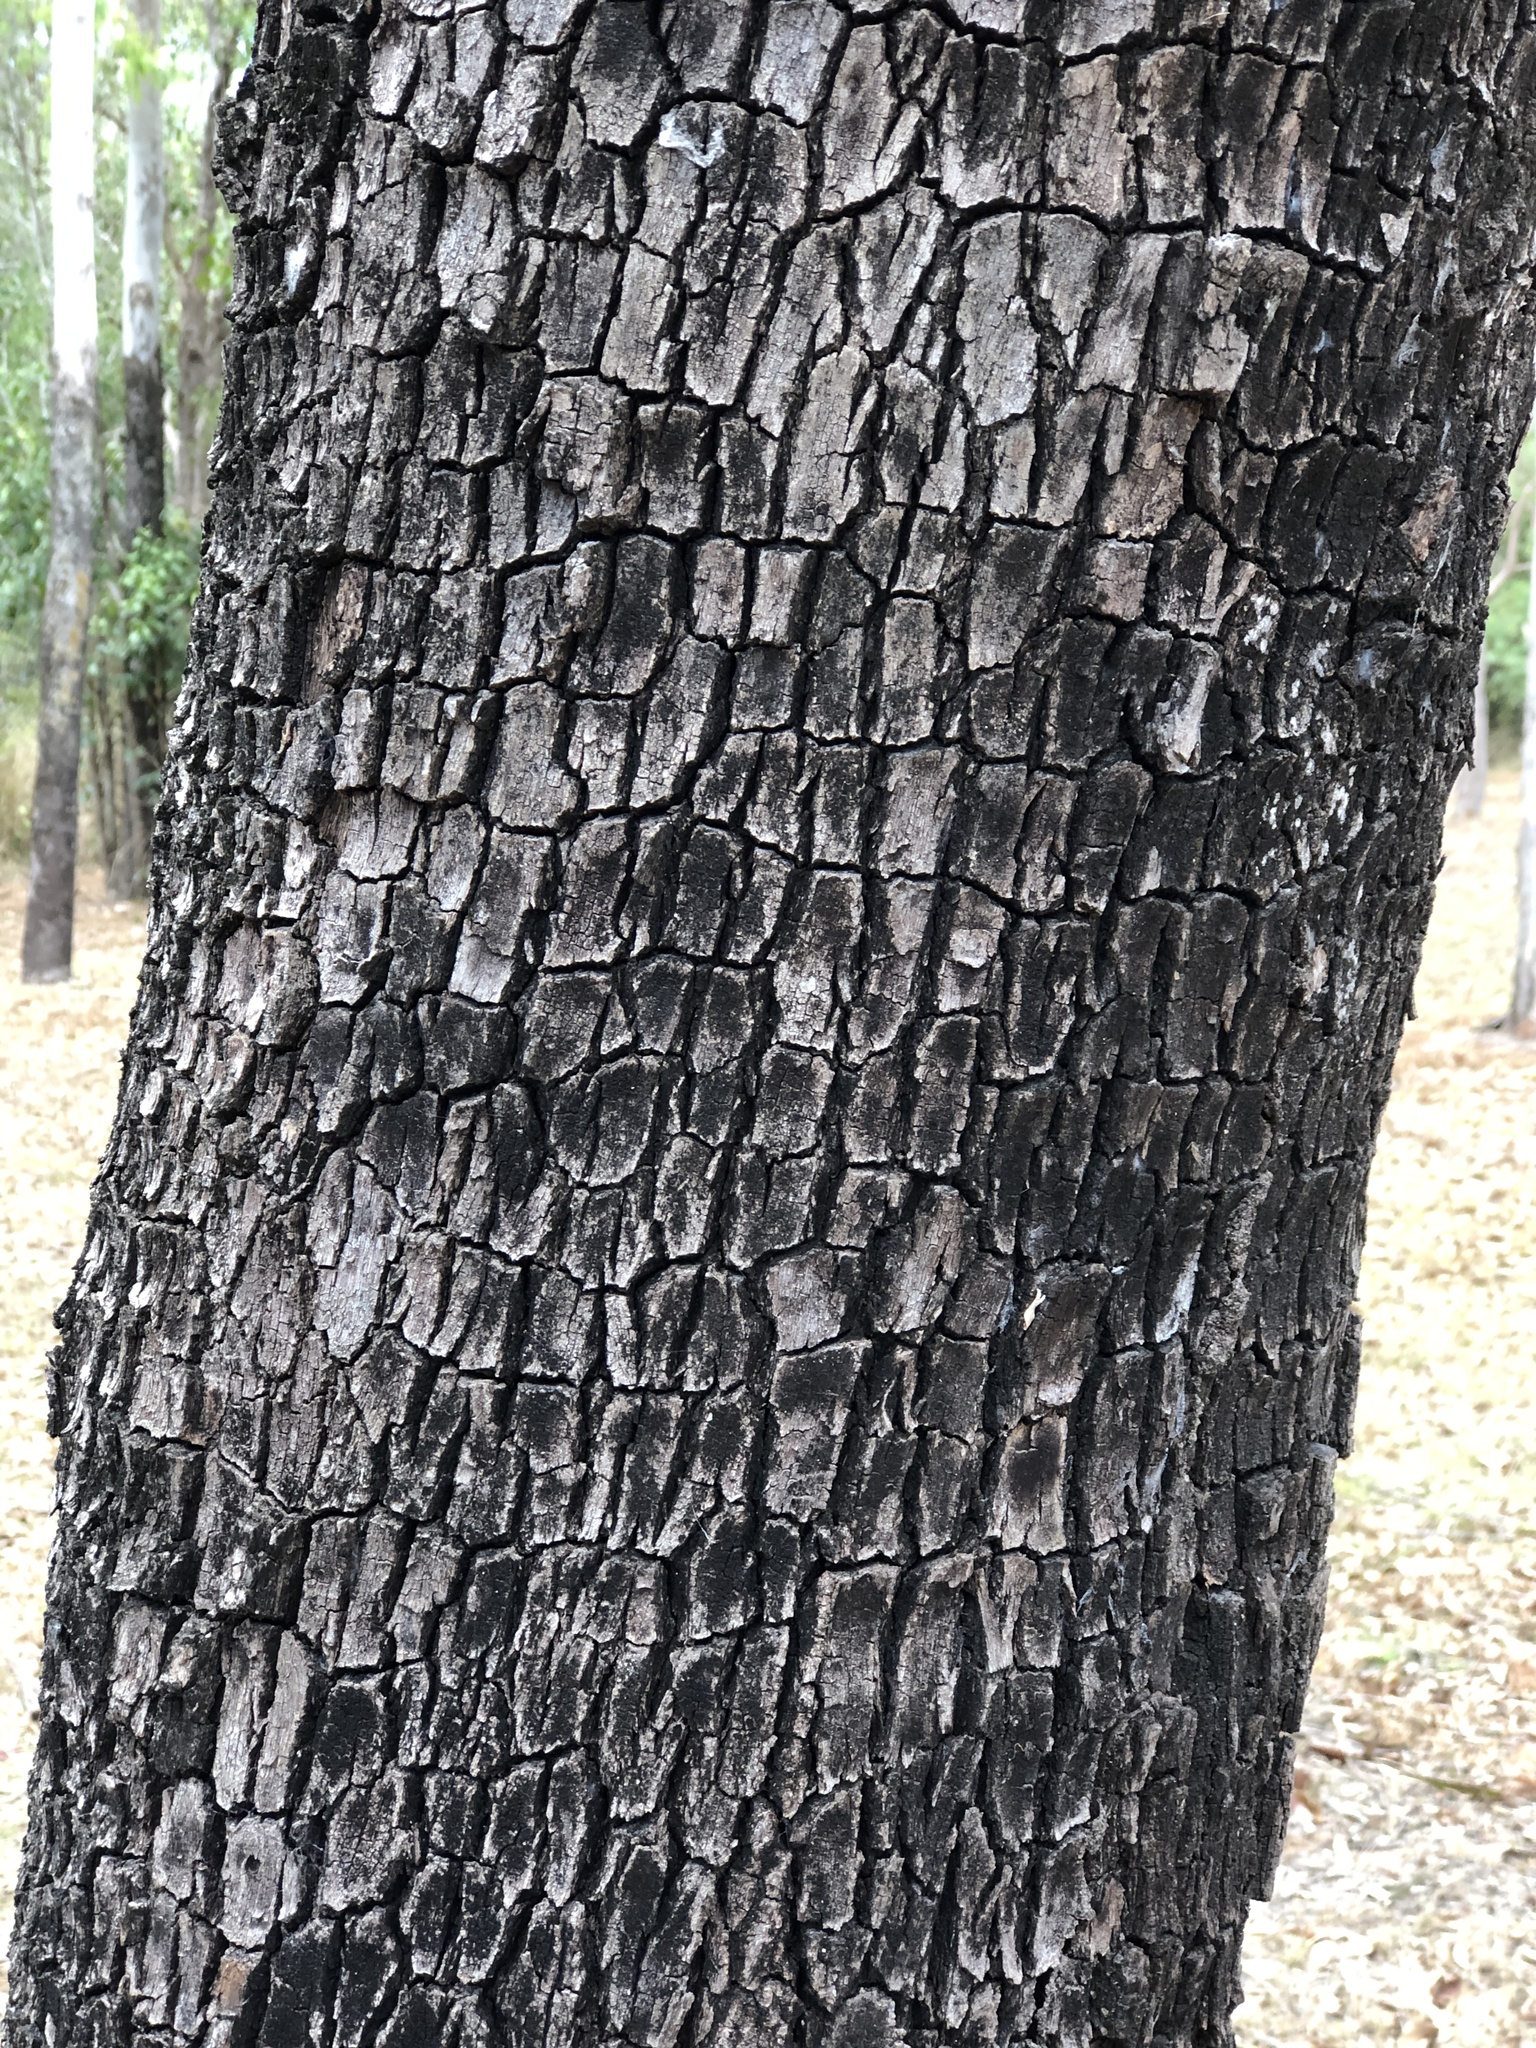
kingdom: Plantae
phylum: Tracheophyta
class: Magnoliopsida
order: Myrtales
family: Myrtaceae
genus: Corymbia
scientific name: Corymbia tessellaris
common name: Carbeen
